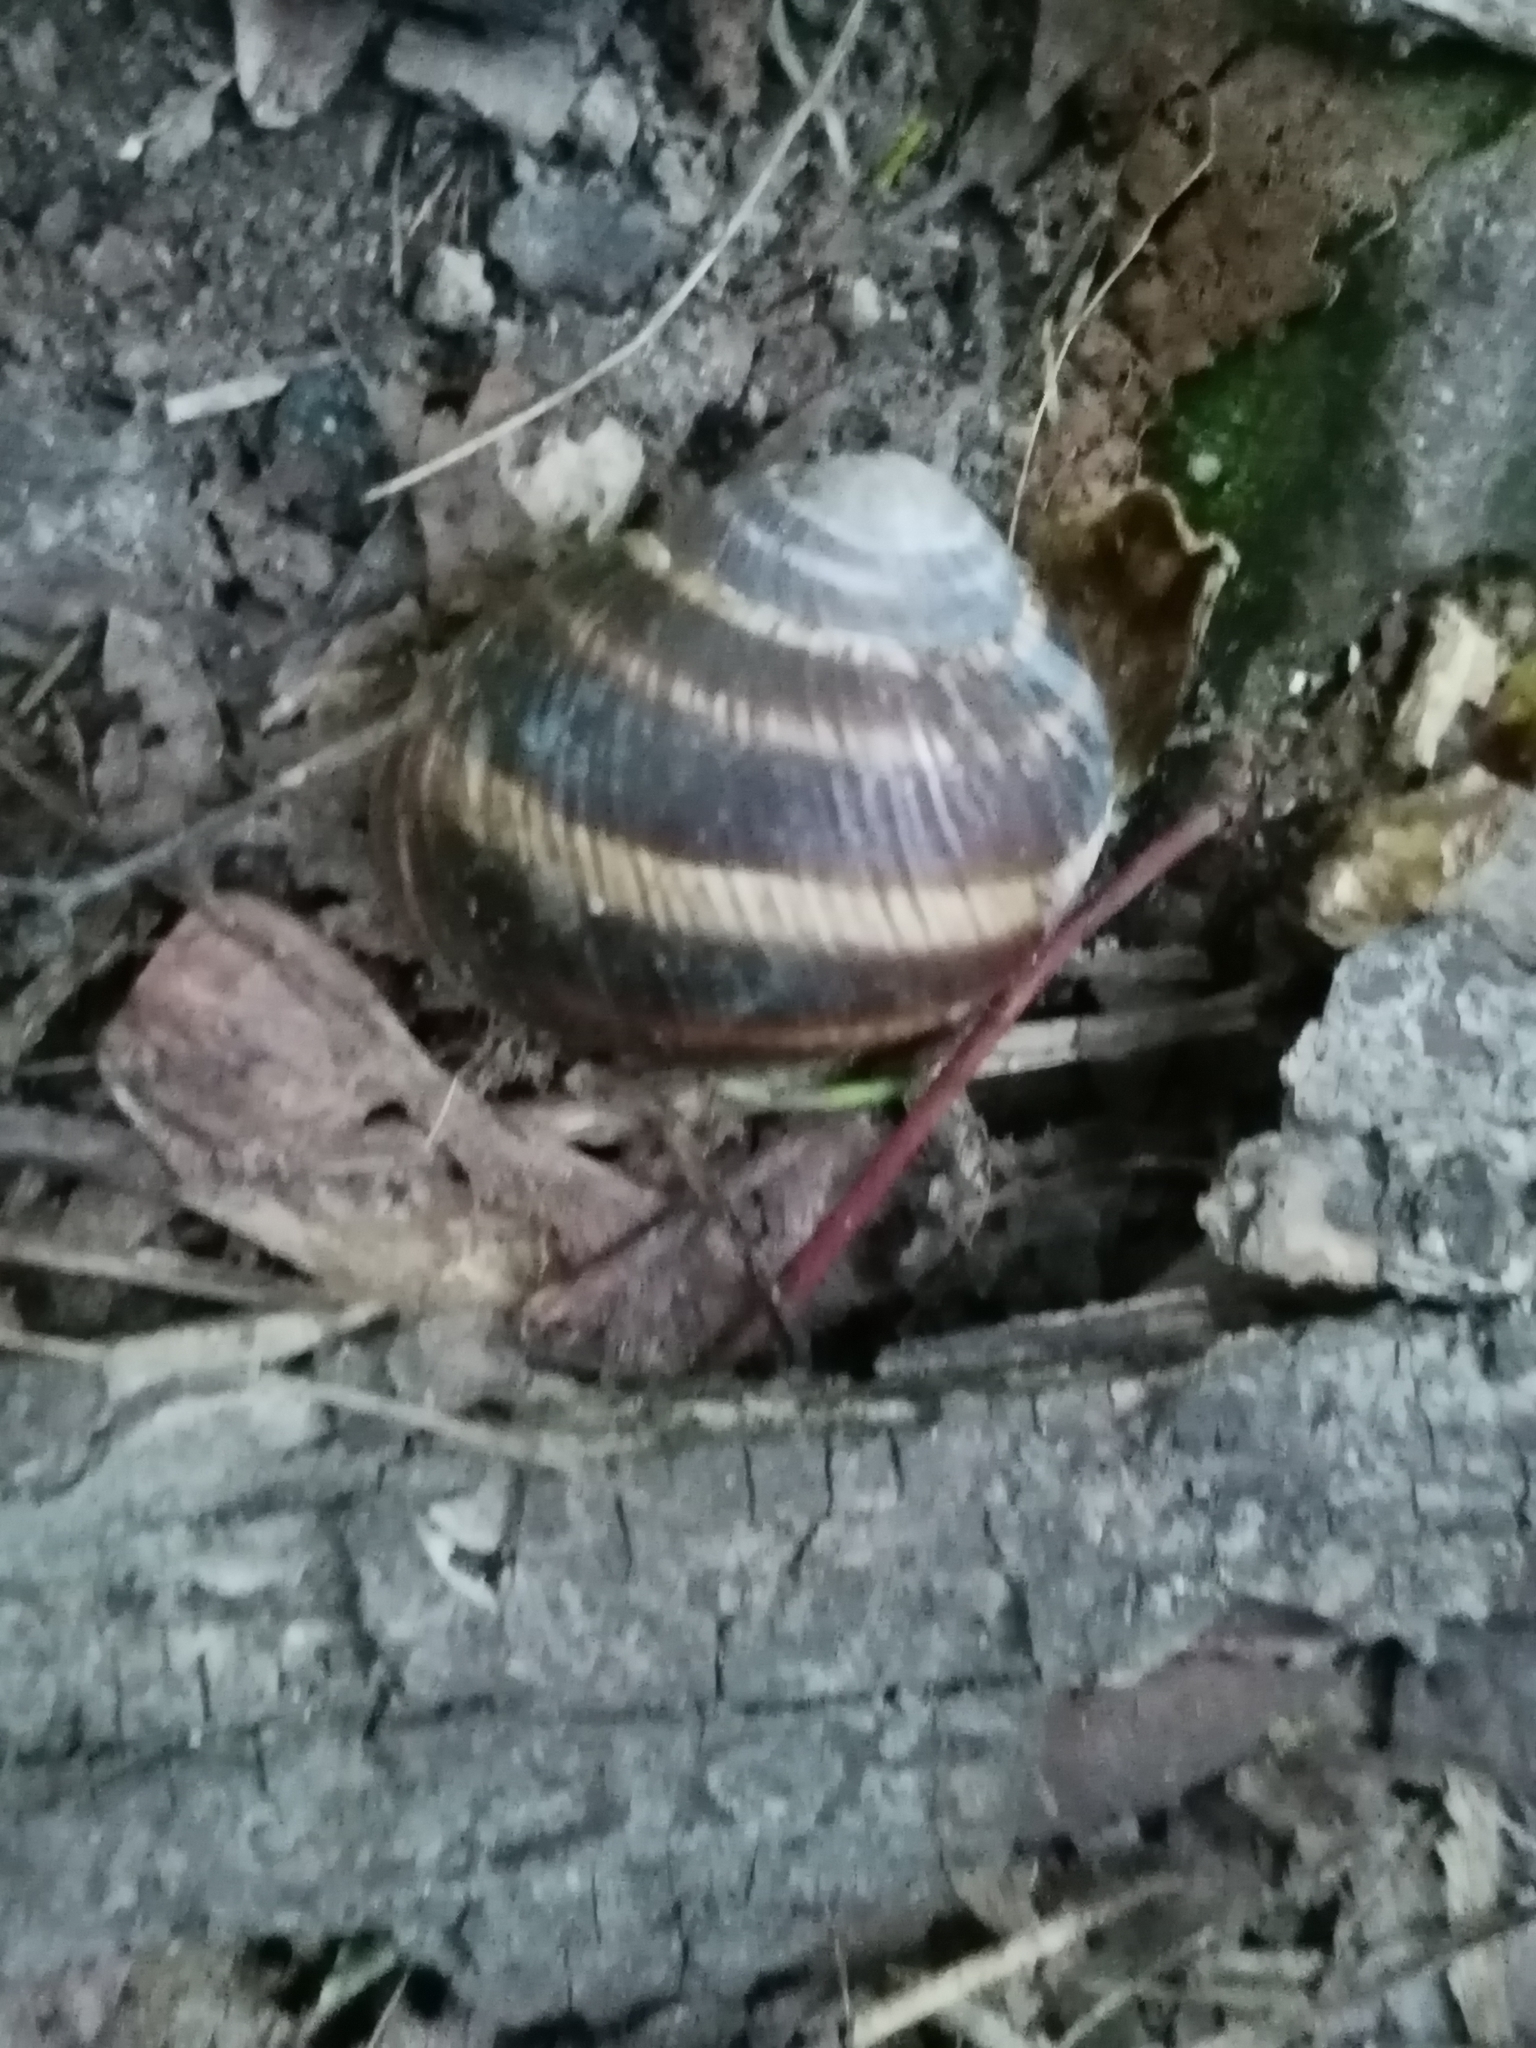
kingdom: Animalia
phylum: Mollusca
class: Gastropoda
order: Stylommatophora
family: Helicidae
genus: Helix
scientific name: Helix albescens
